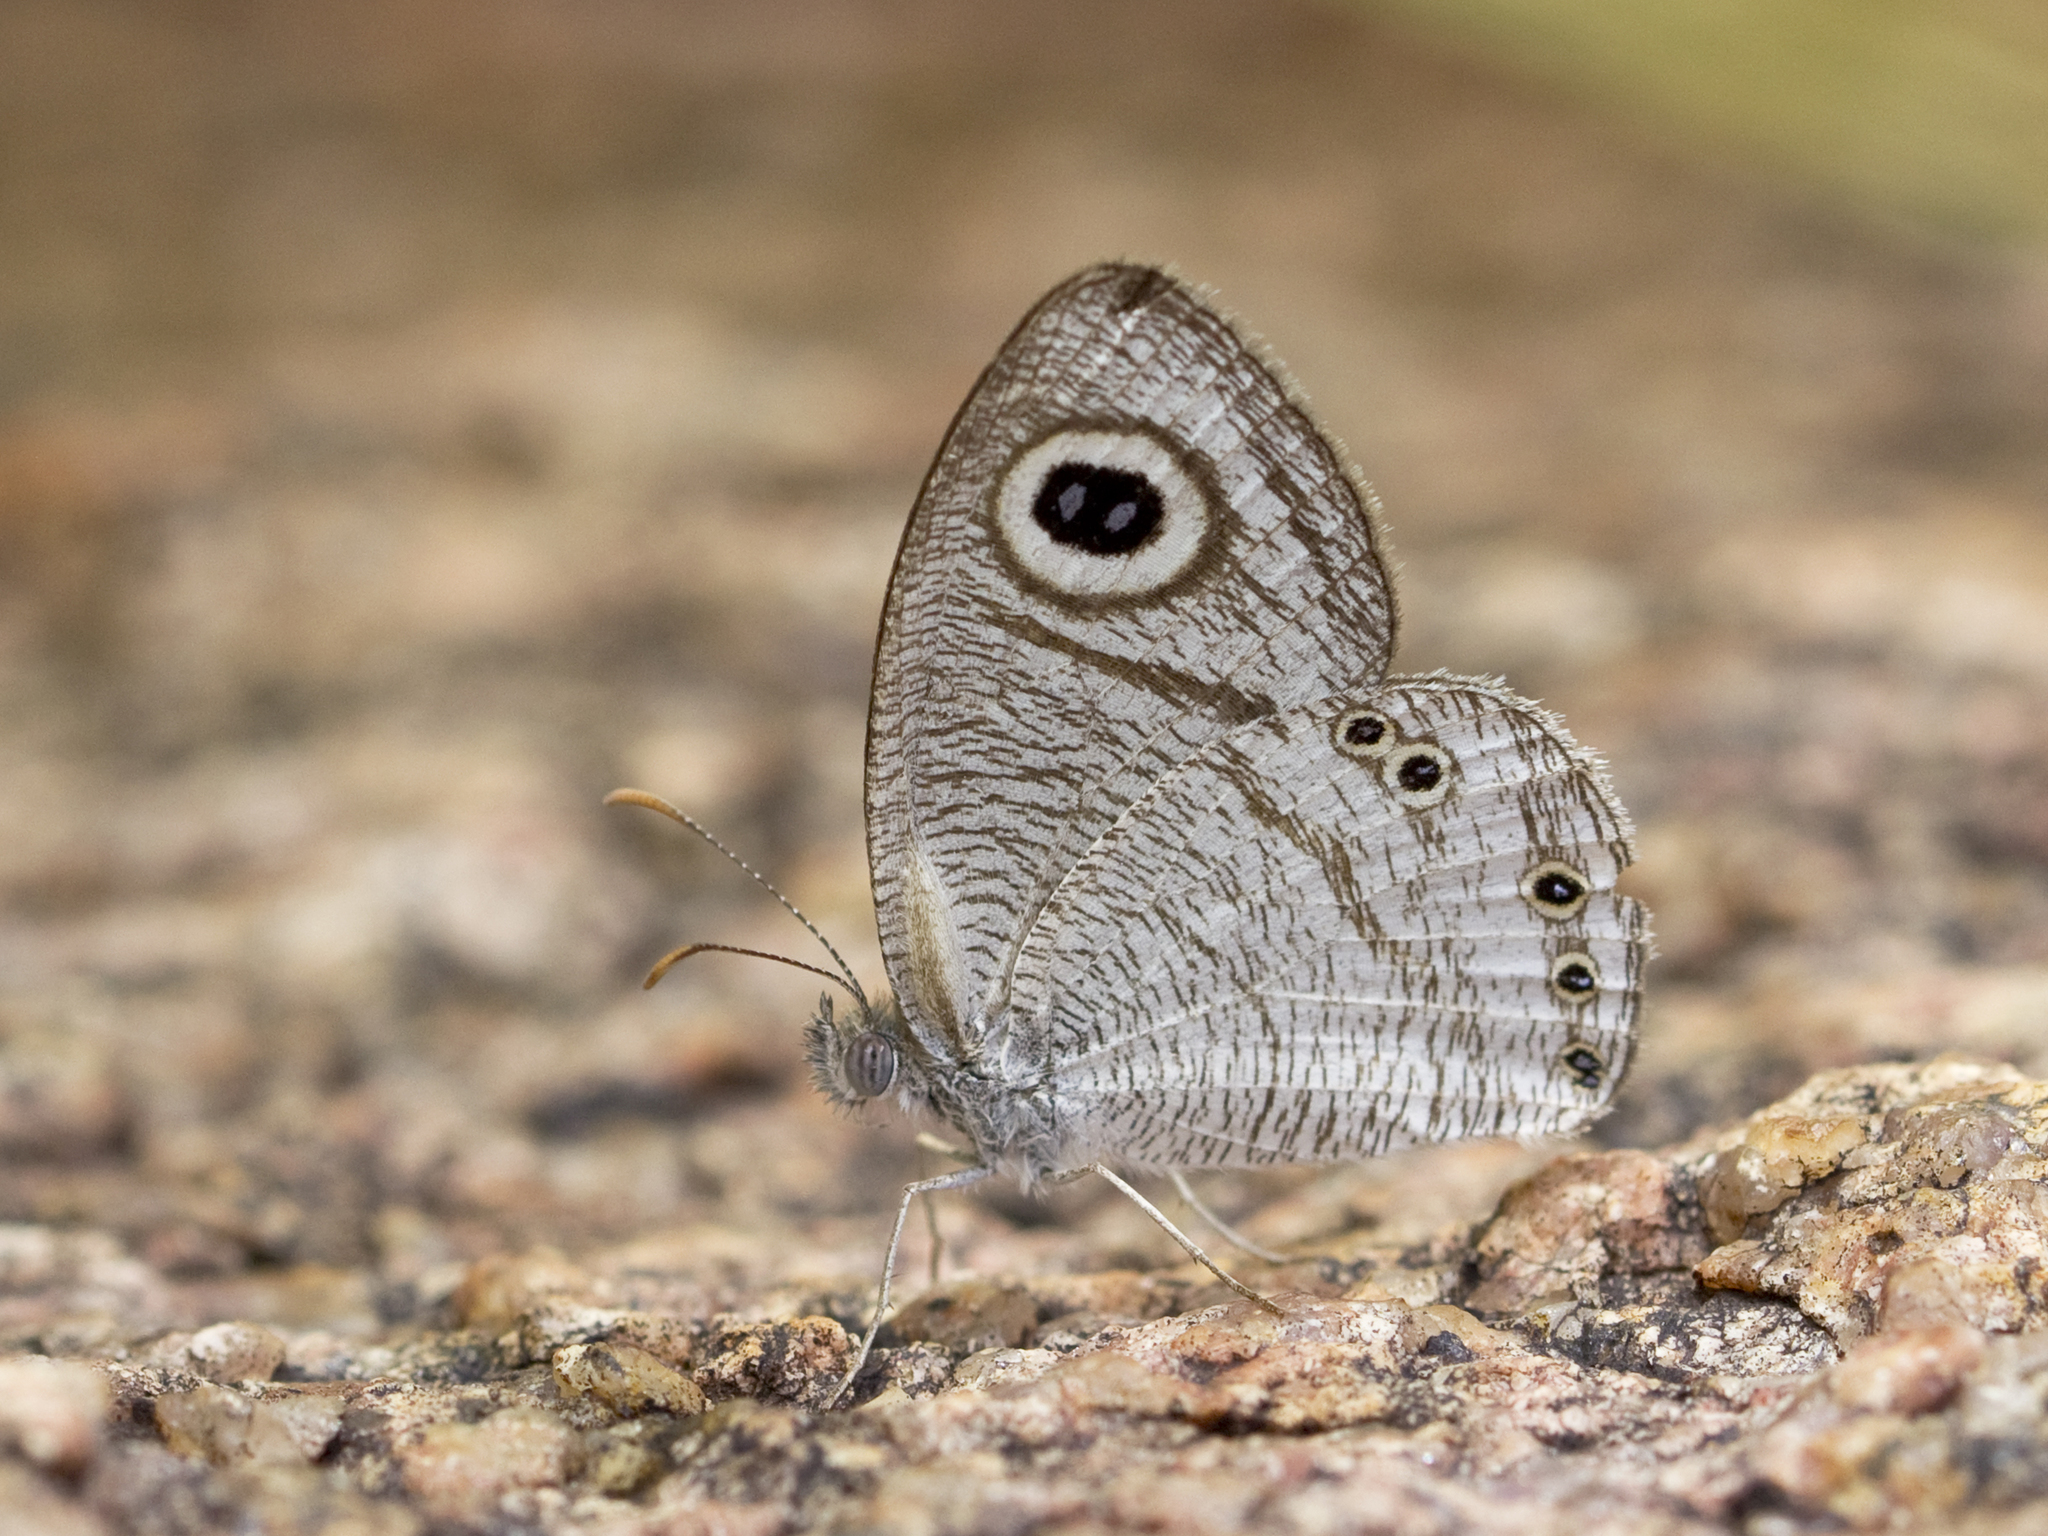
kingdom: Animalia
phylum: Arthropoda
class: Insecta
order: Lepidoptera
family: Nymphalidae
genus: Ypthima
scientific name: Ypthima avanta
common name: Jewel five-ring
